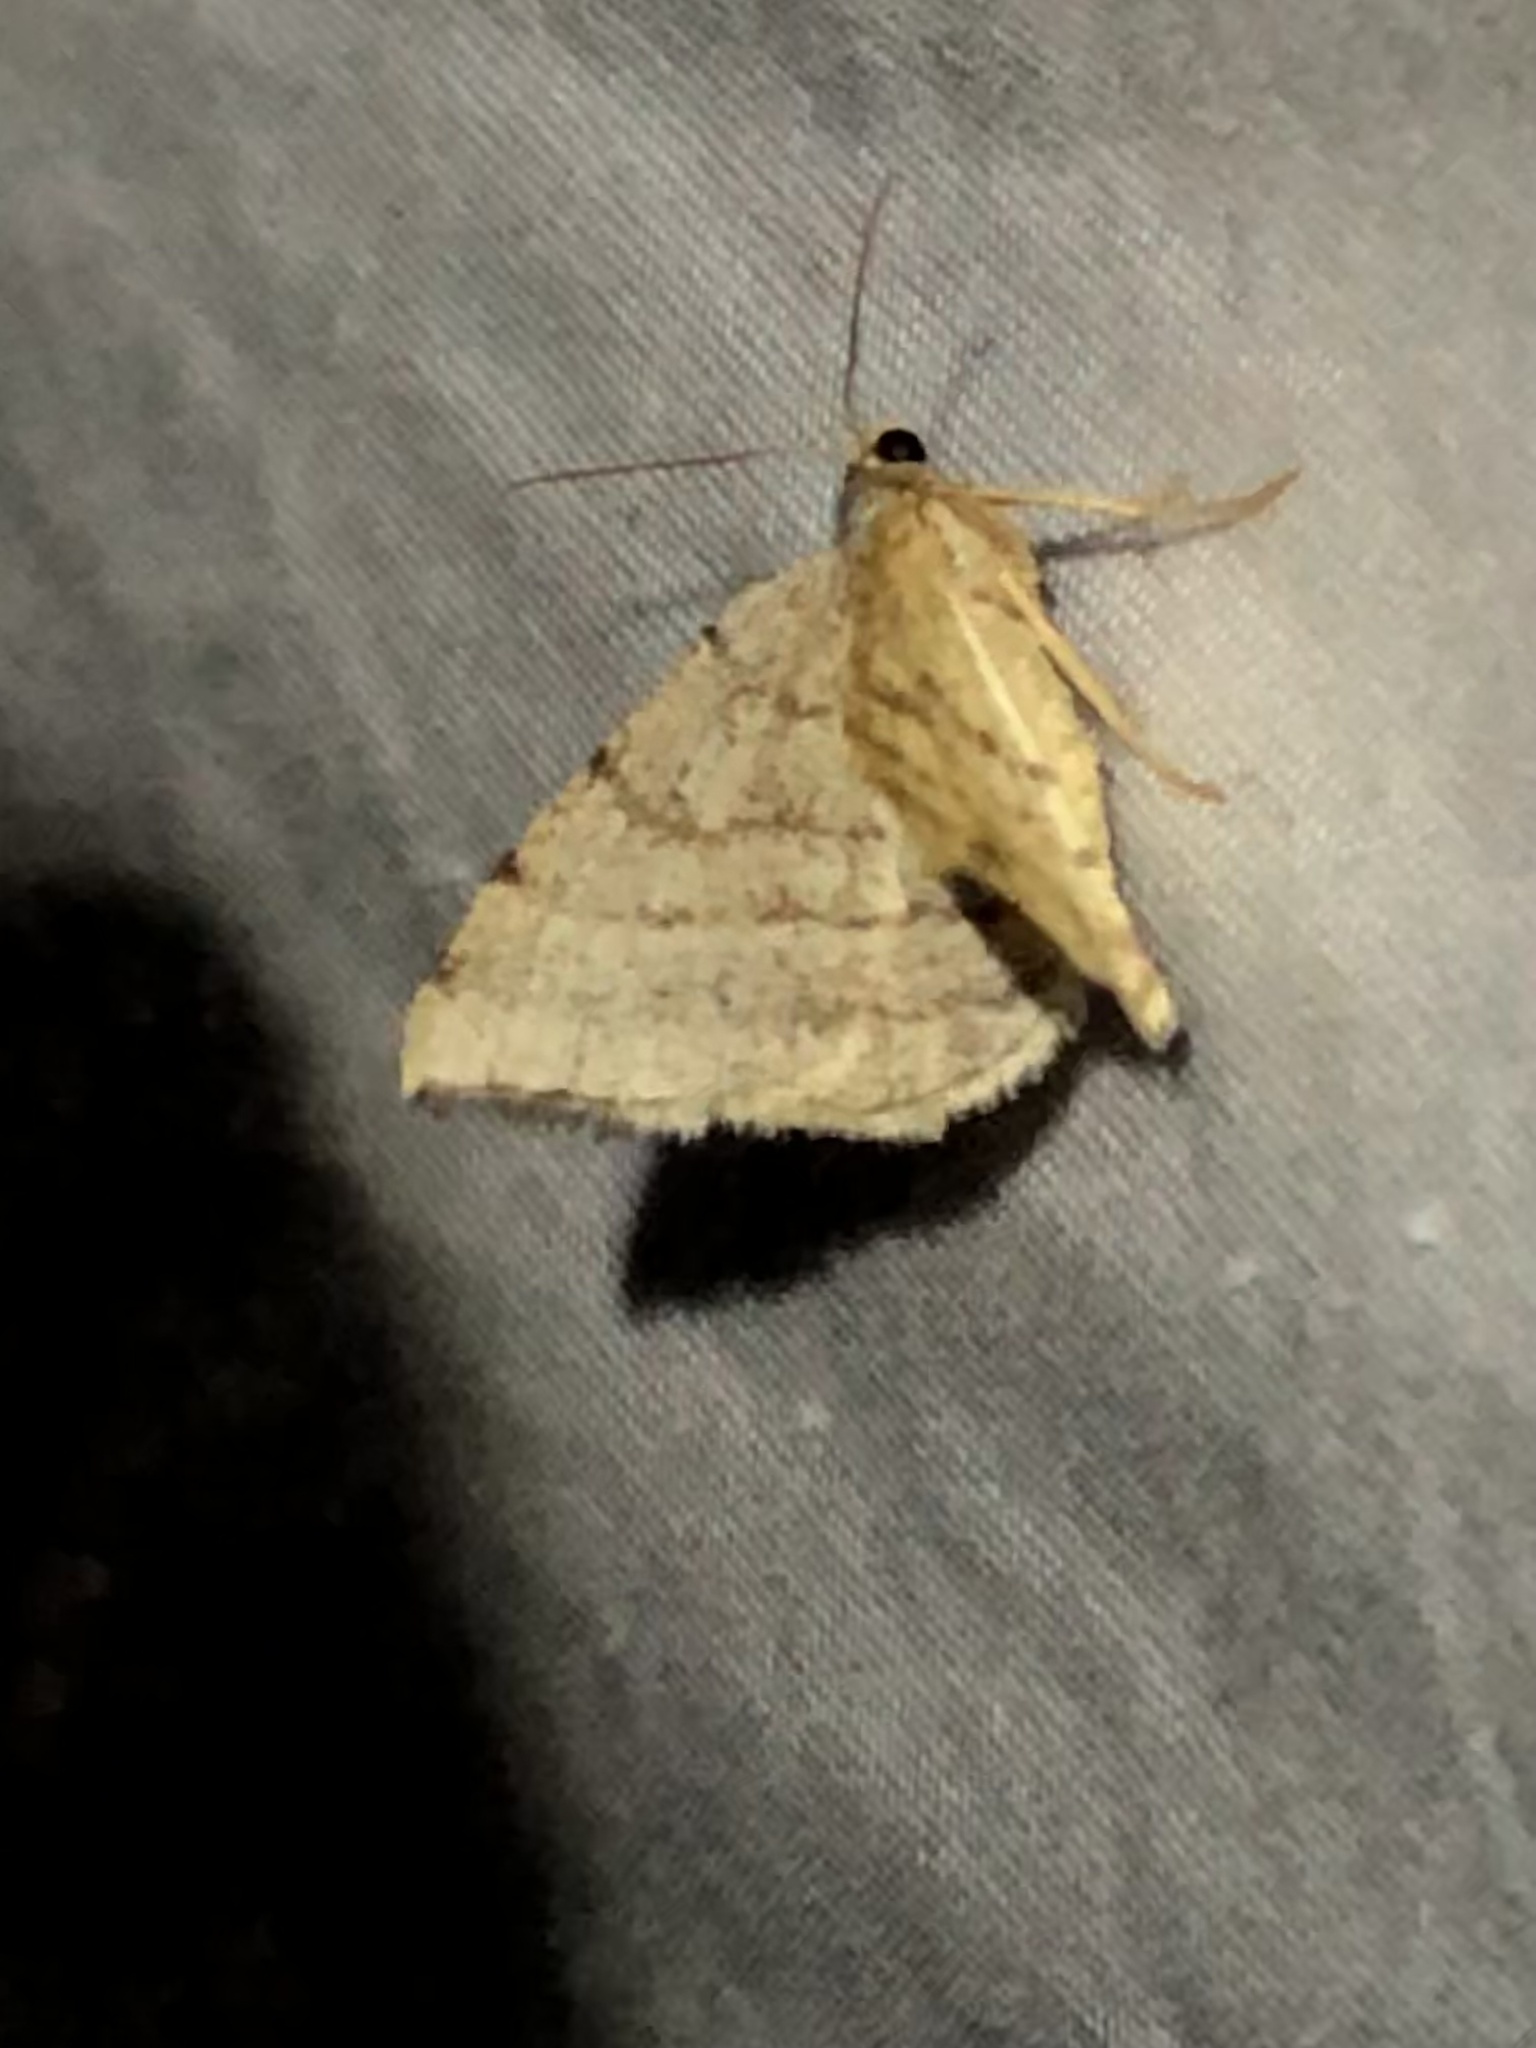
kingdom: Animalia
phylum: Arthropoda
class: Insecta
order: Lepidoptera
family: Geometridae
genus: Macaria
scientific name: Macaria octolineata
